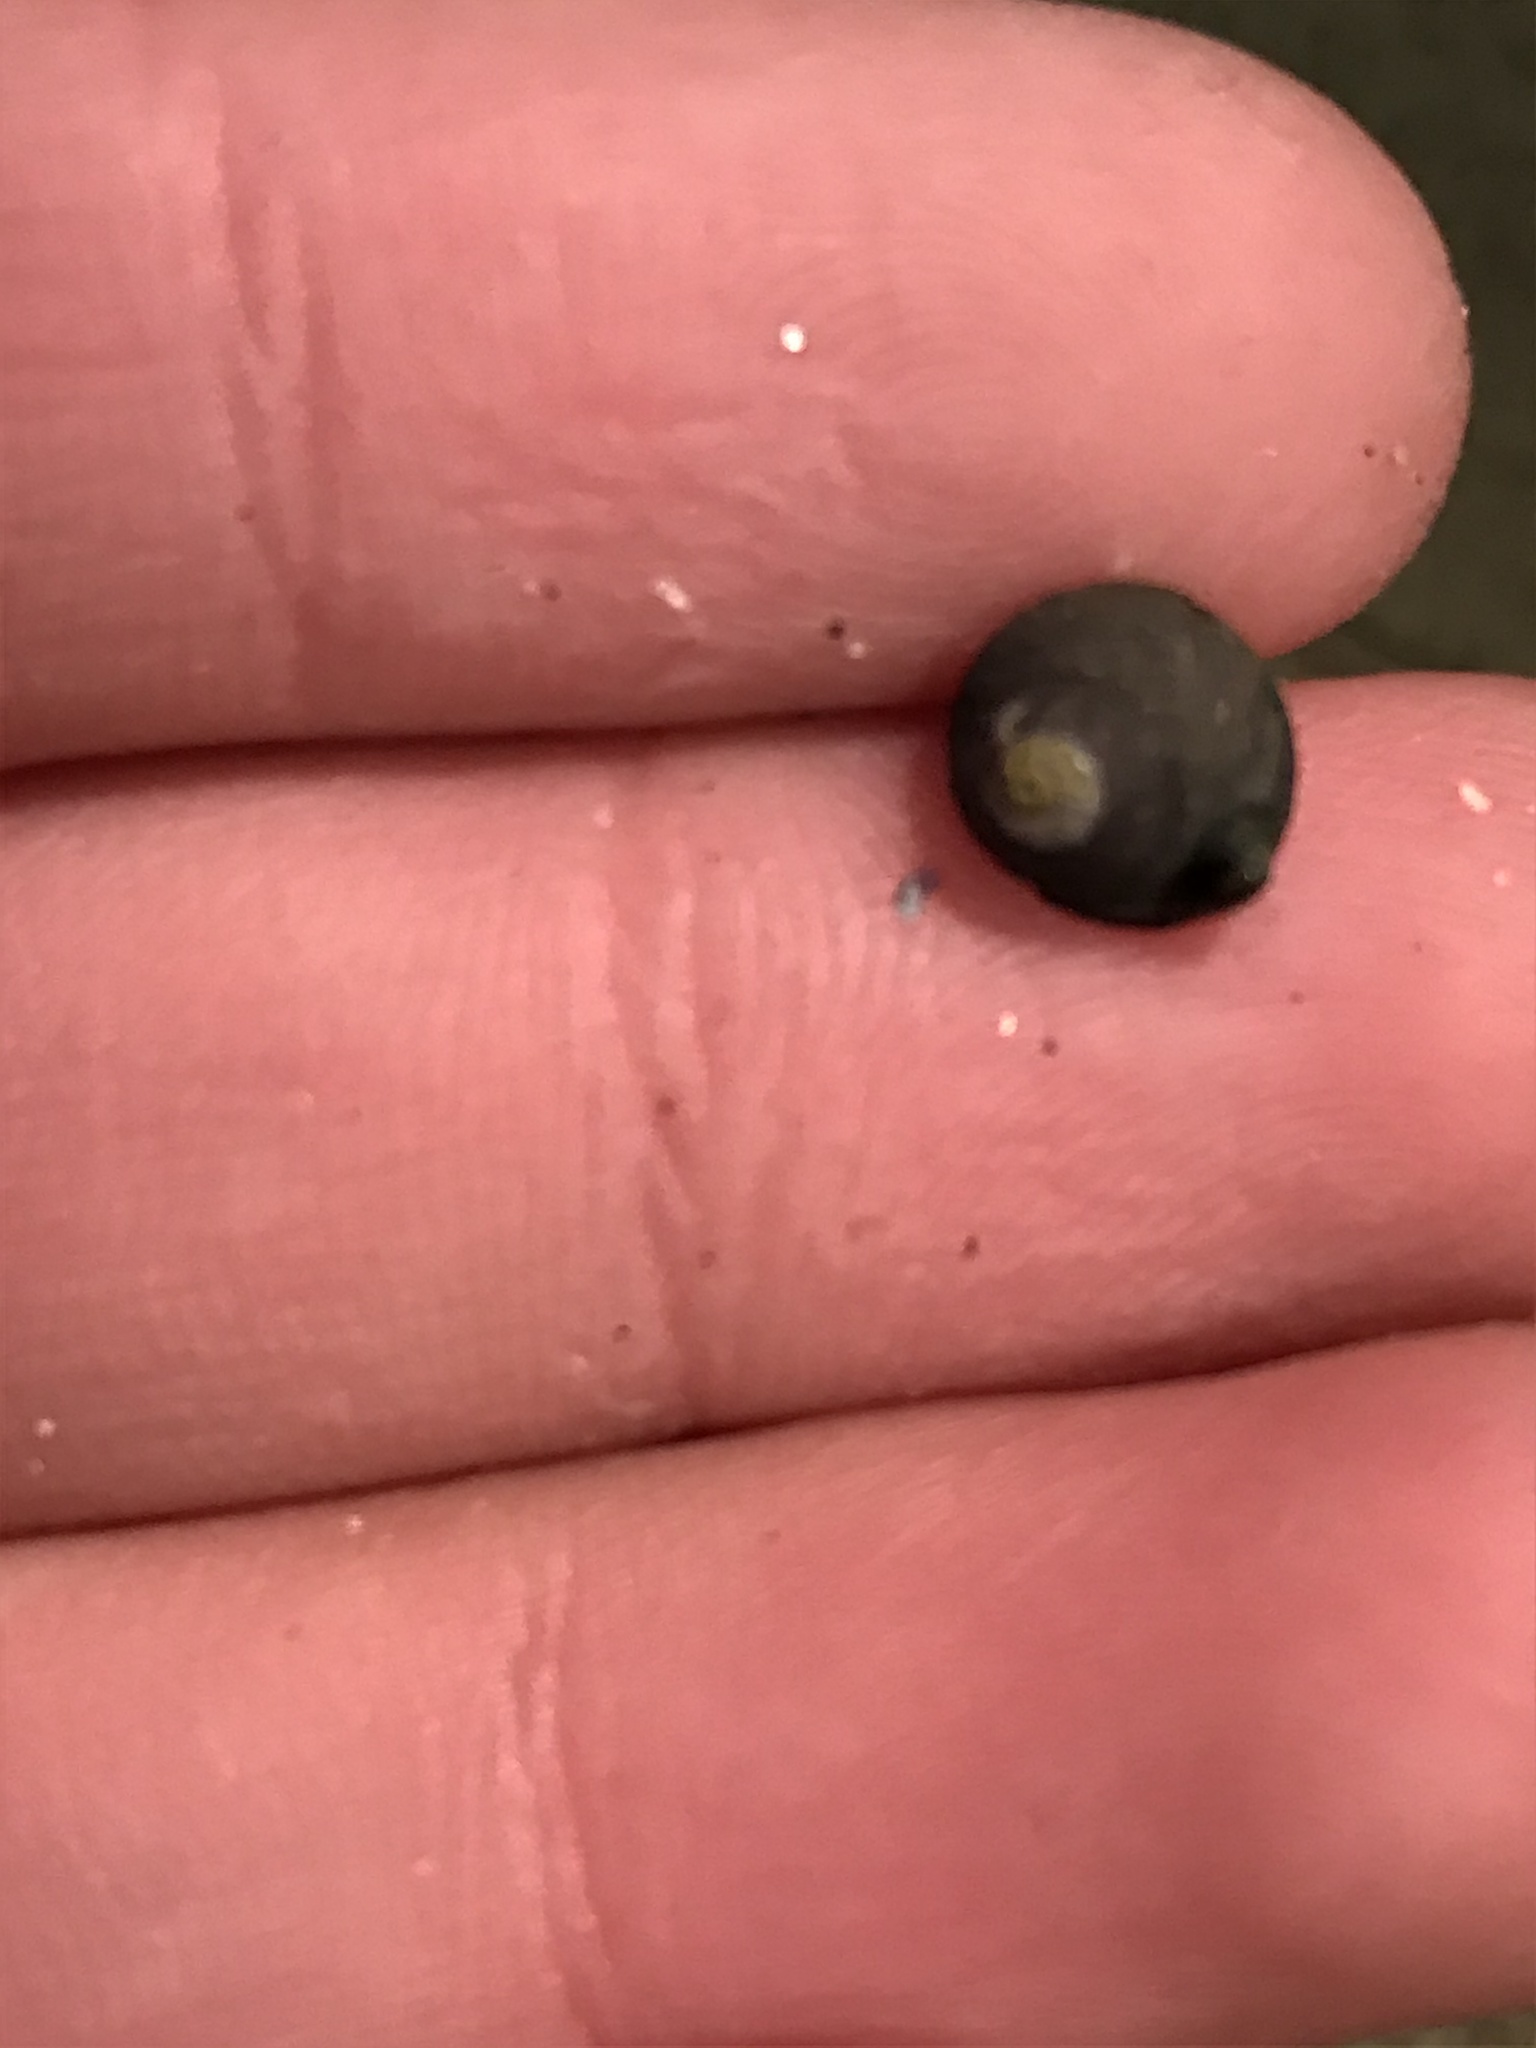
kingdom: Animalia
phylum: Mollusca
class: Gastropoda
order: Trochida
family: Tegulidae
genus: Tegula
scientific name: Tegula funebralis
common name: Black tegula
